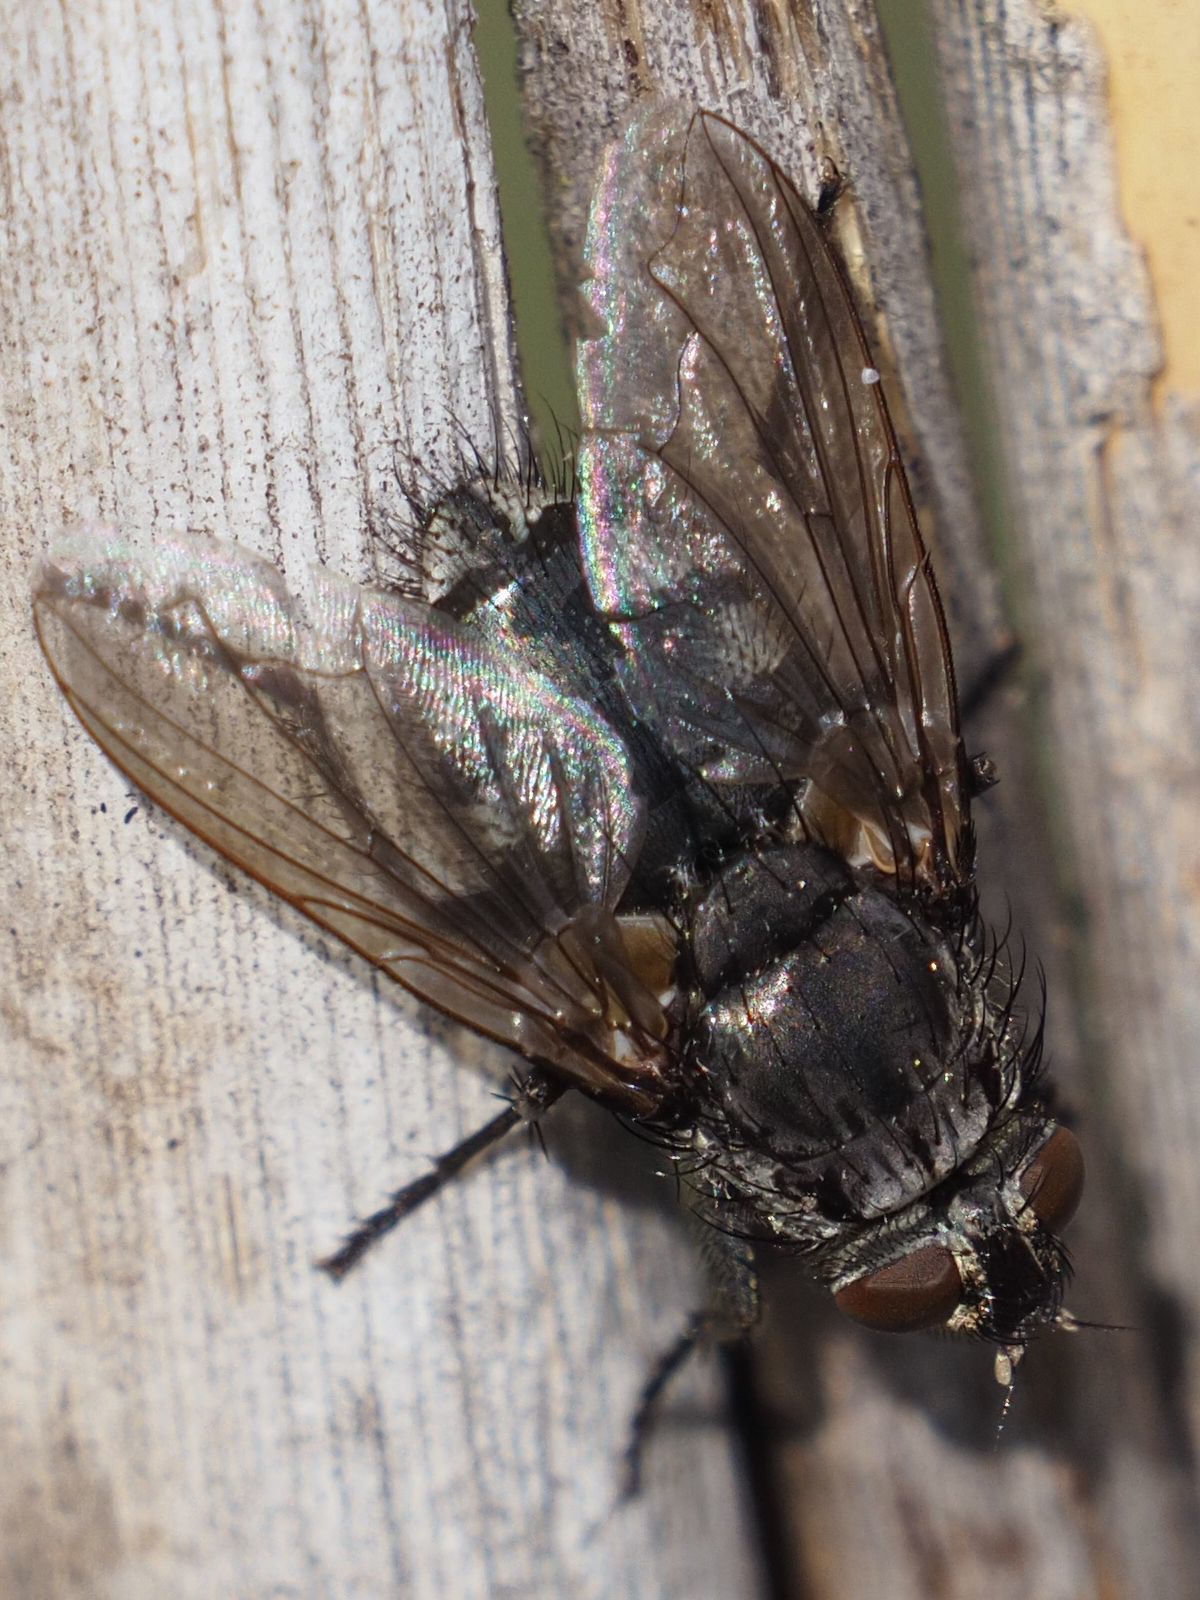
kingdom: Animalia
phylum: Arthropoda
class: Insecta
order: Diptera
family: Polleniidae
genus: Pollenia
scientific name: Pollenia vagabunda
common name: Vagabund cluster fly
